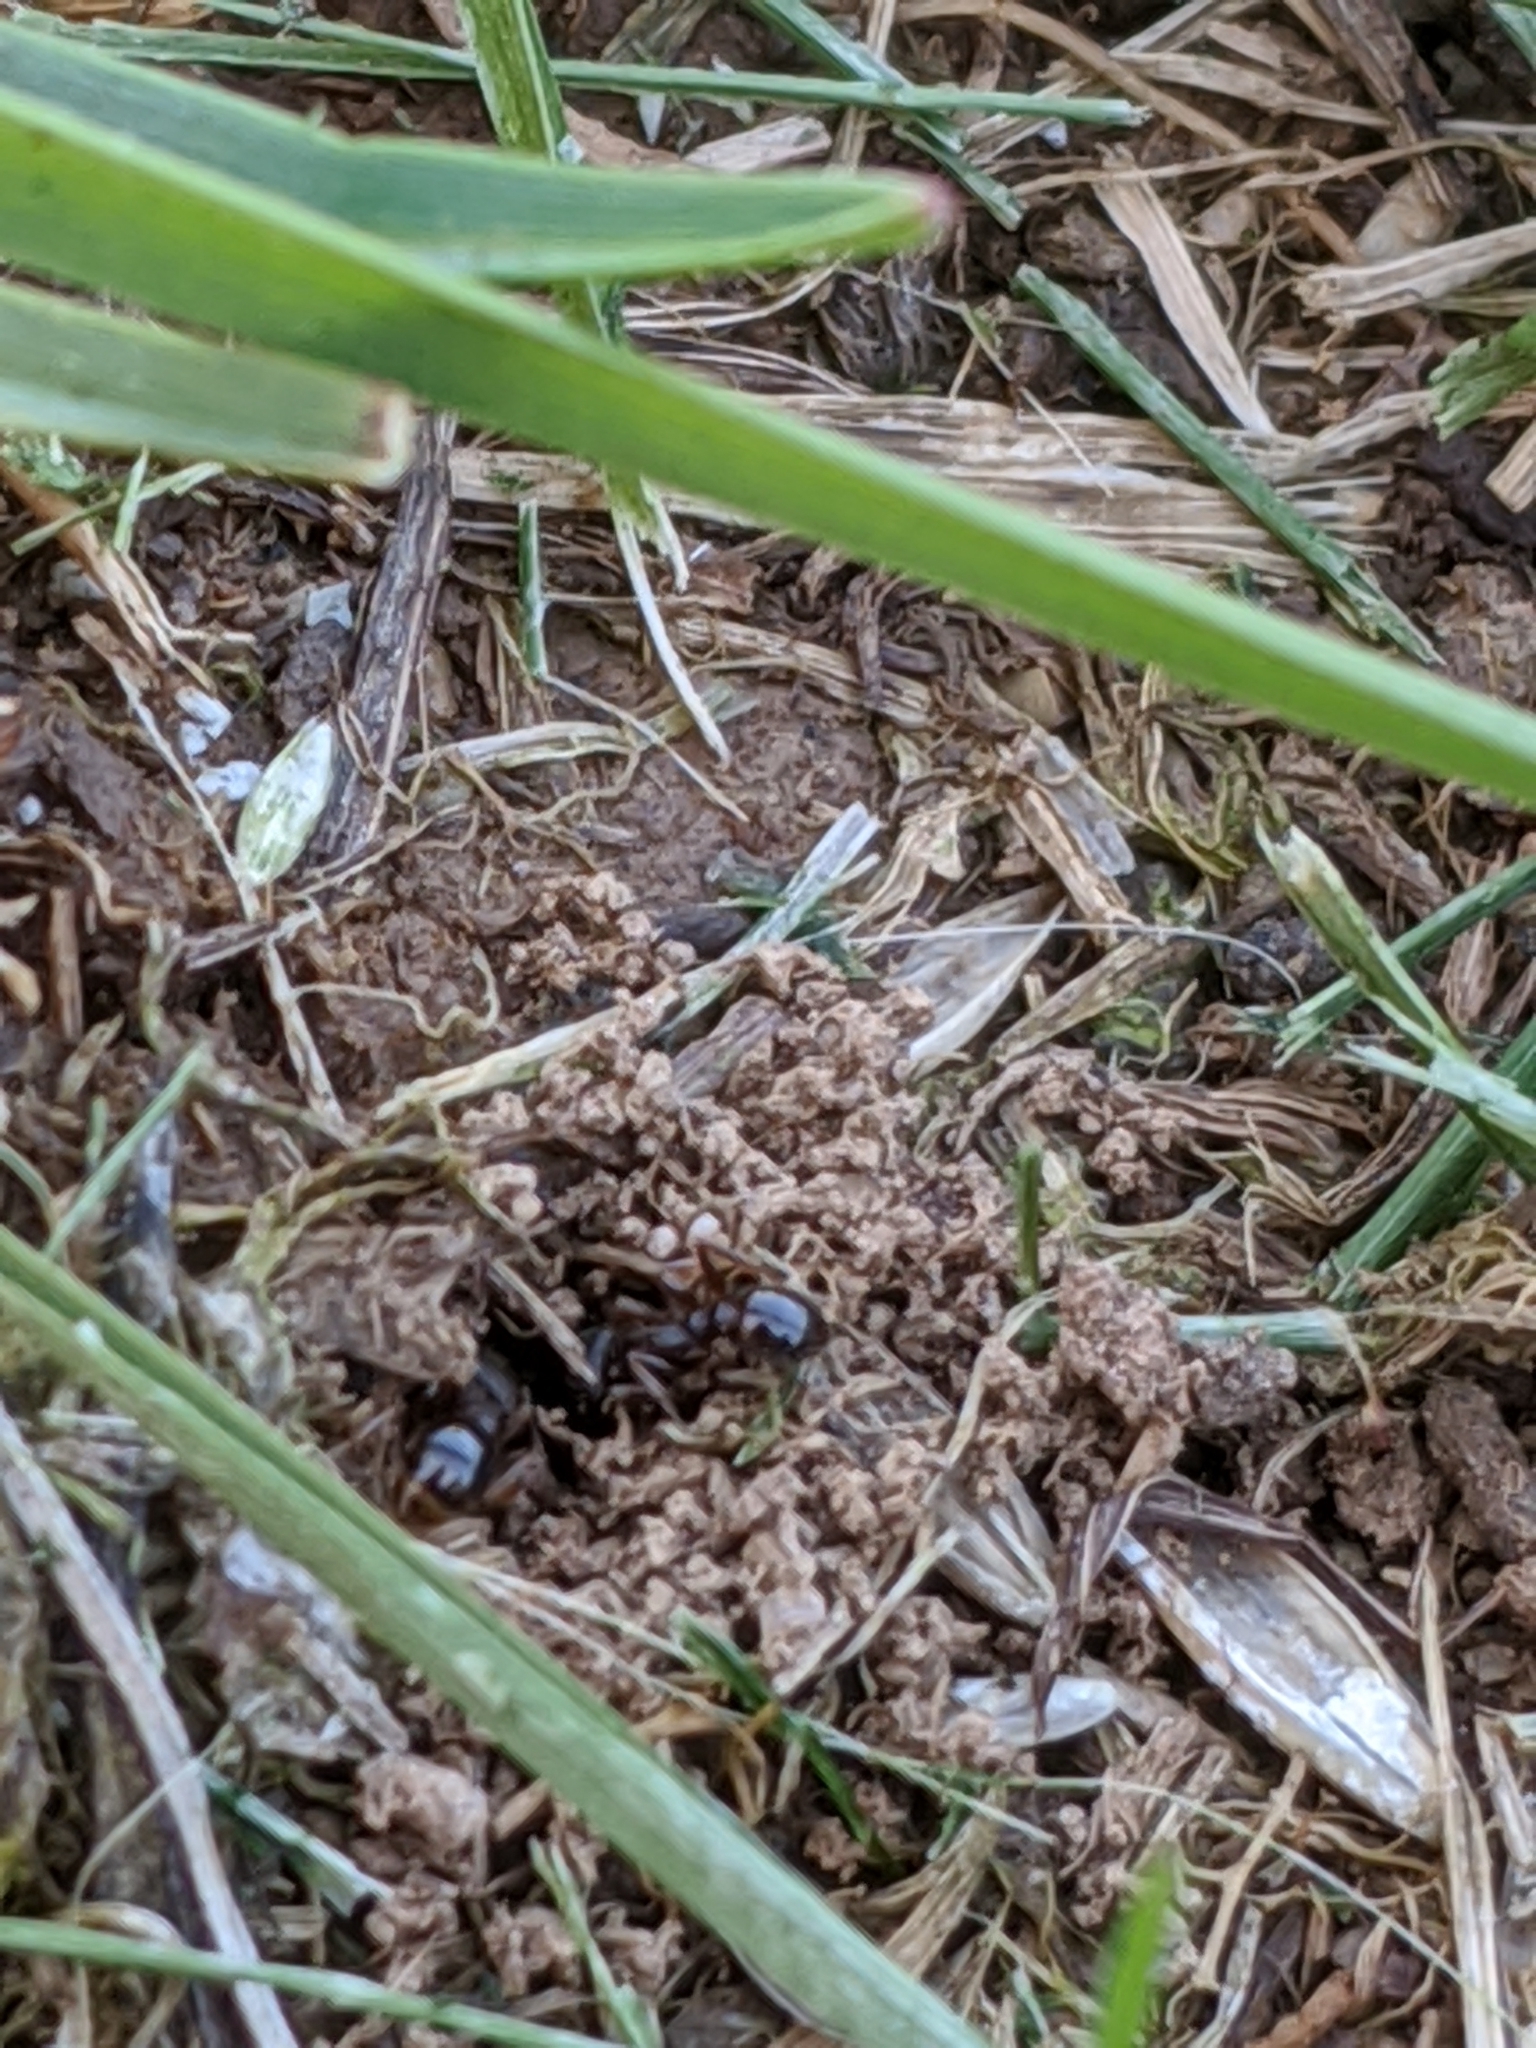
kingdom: Animalia
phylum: Arthropoda
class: Insecta
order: Hymenoptera
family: Formicidae
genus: Tetramorium
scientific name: Tetramorium immigrans
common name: Pavement ant
